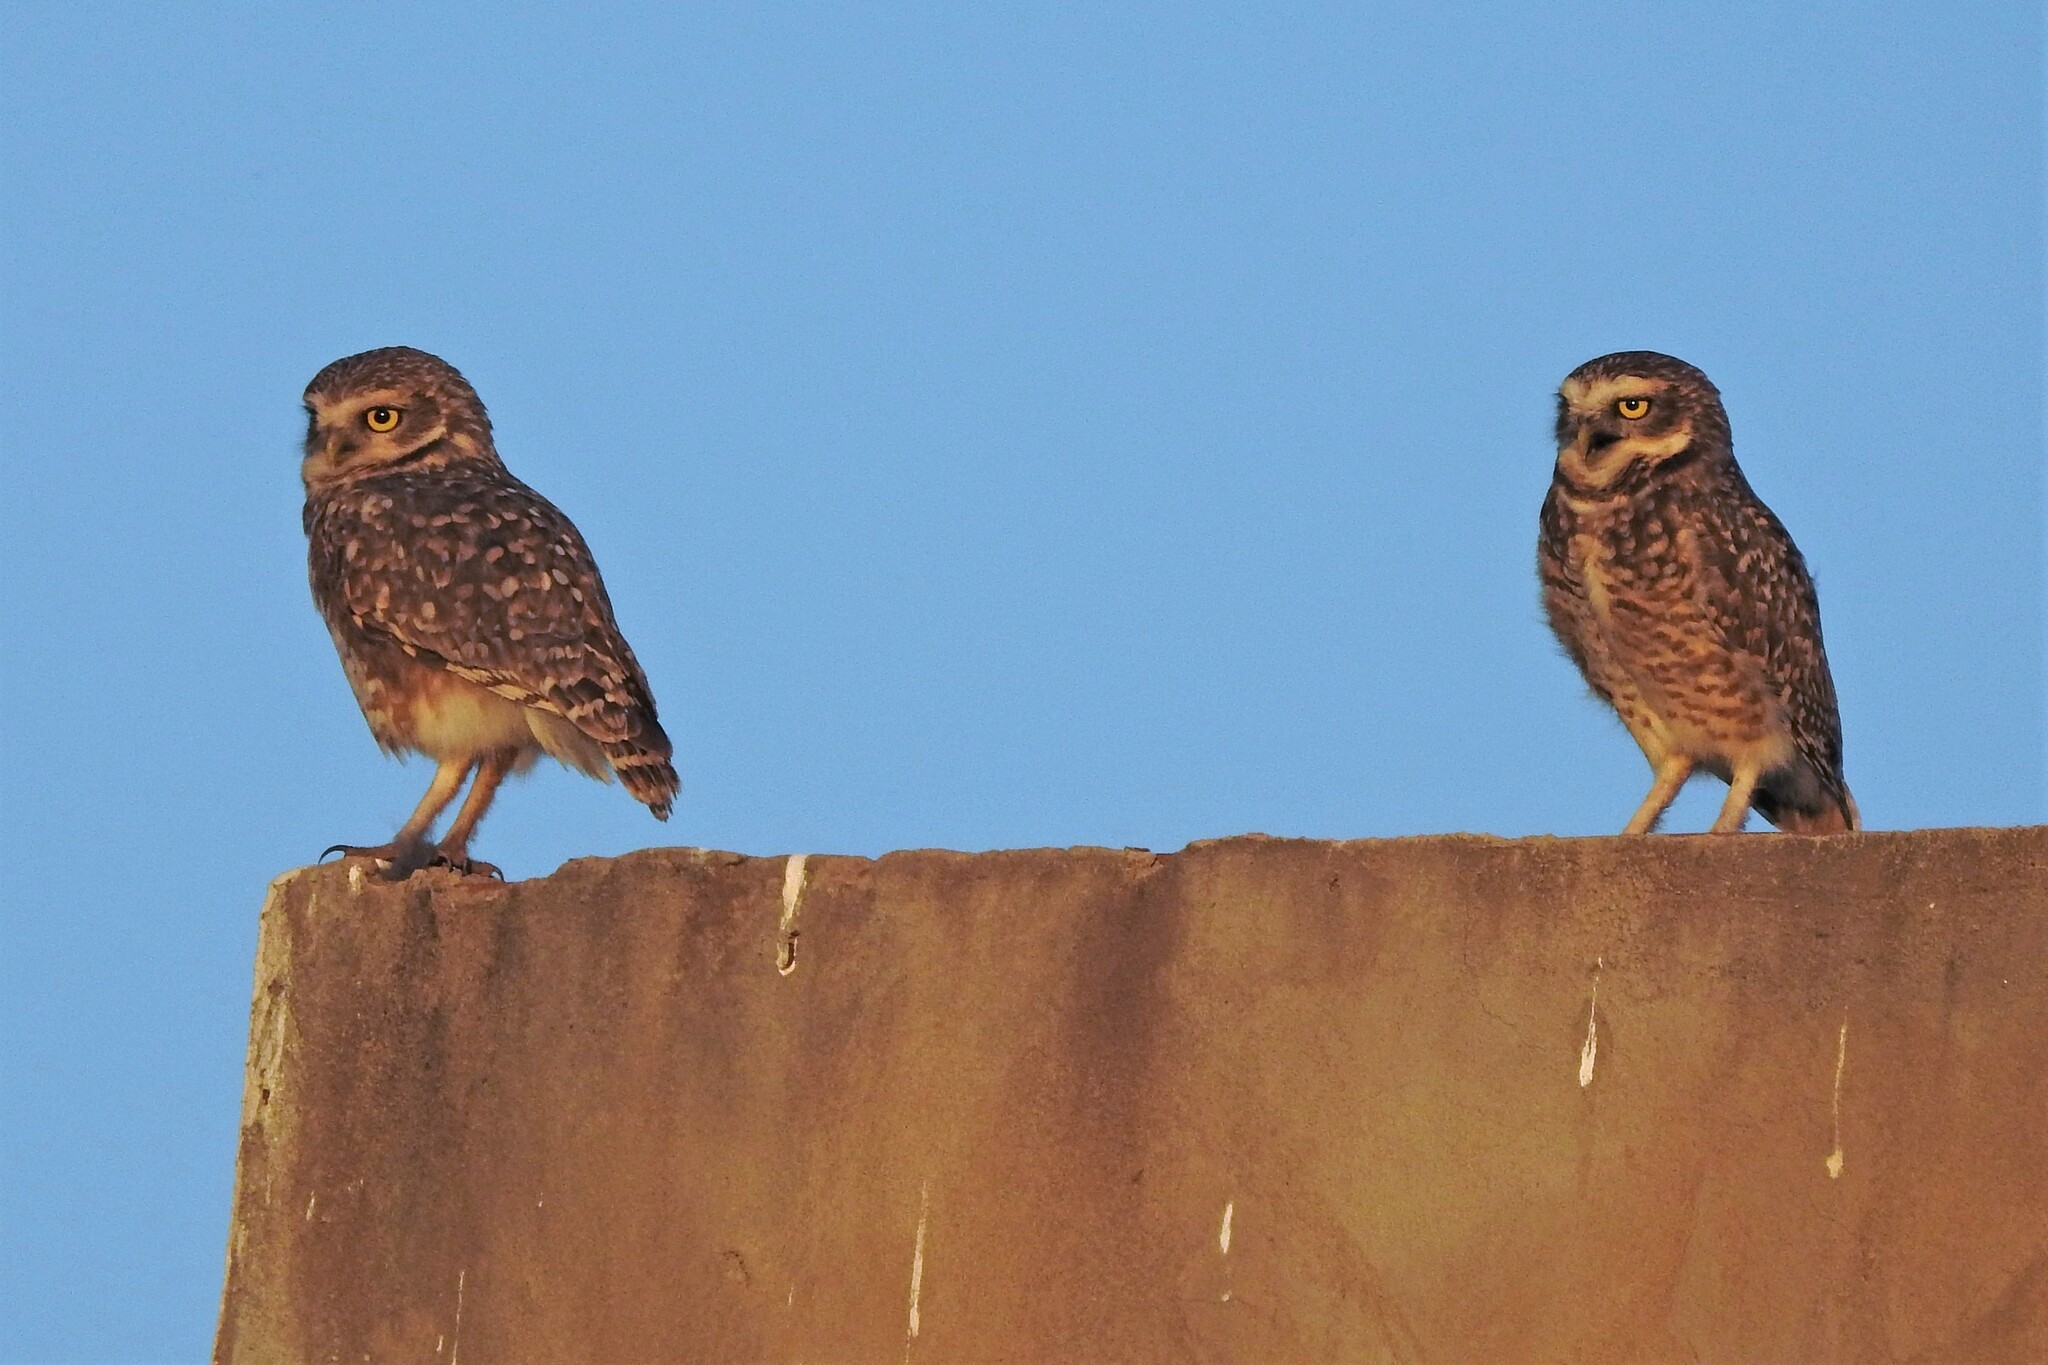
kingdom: Animalia
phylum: Chordata
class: Aves
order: Strigiformes
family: Strigidae
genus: Athene
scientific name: Athene cunicularia
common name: Burrowing owl
